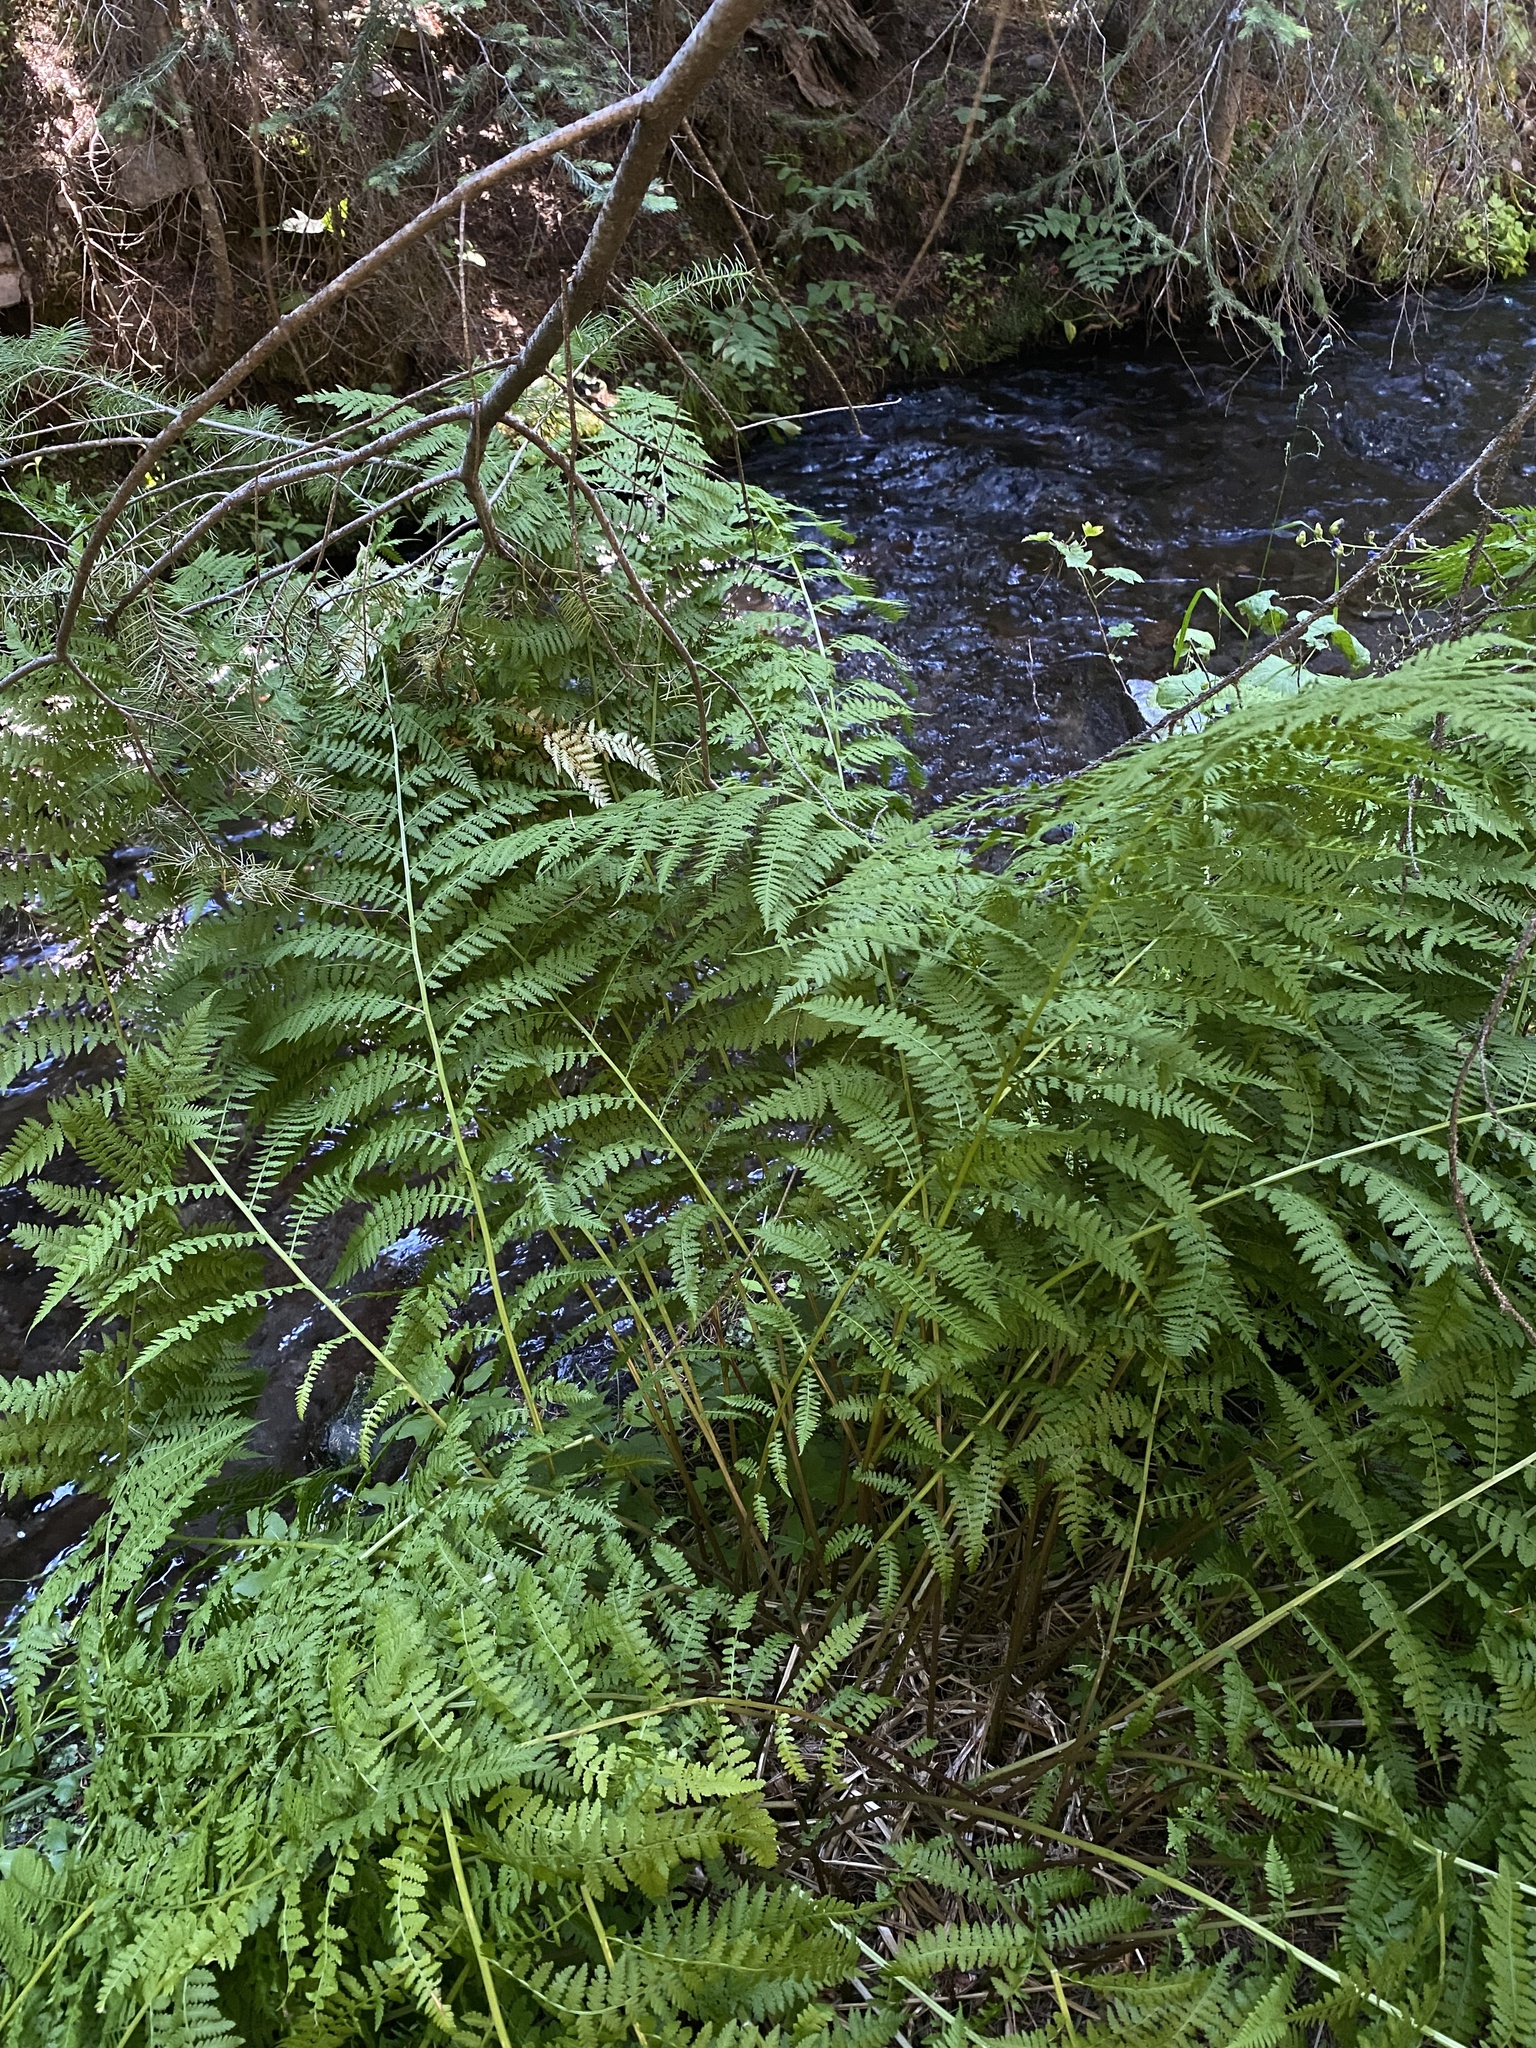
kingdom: Plantae
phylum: Tracheophyta
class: Polypodiopsida
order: Polypodiales
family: Athyriaceae
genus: Athyrium
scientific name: Athyrium cyclosorum
